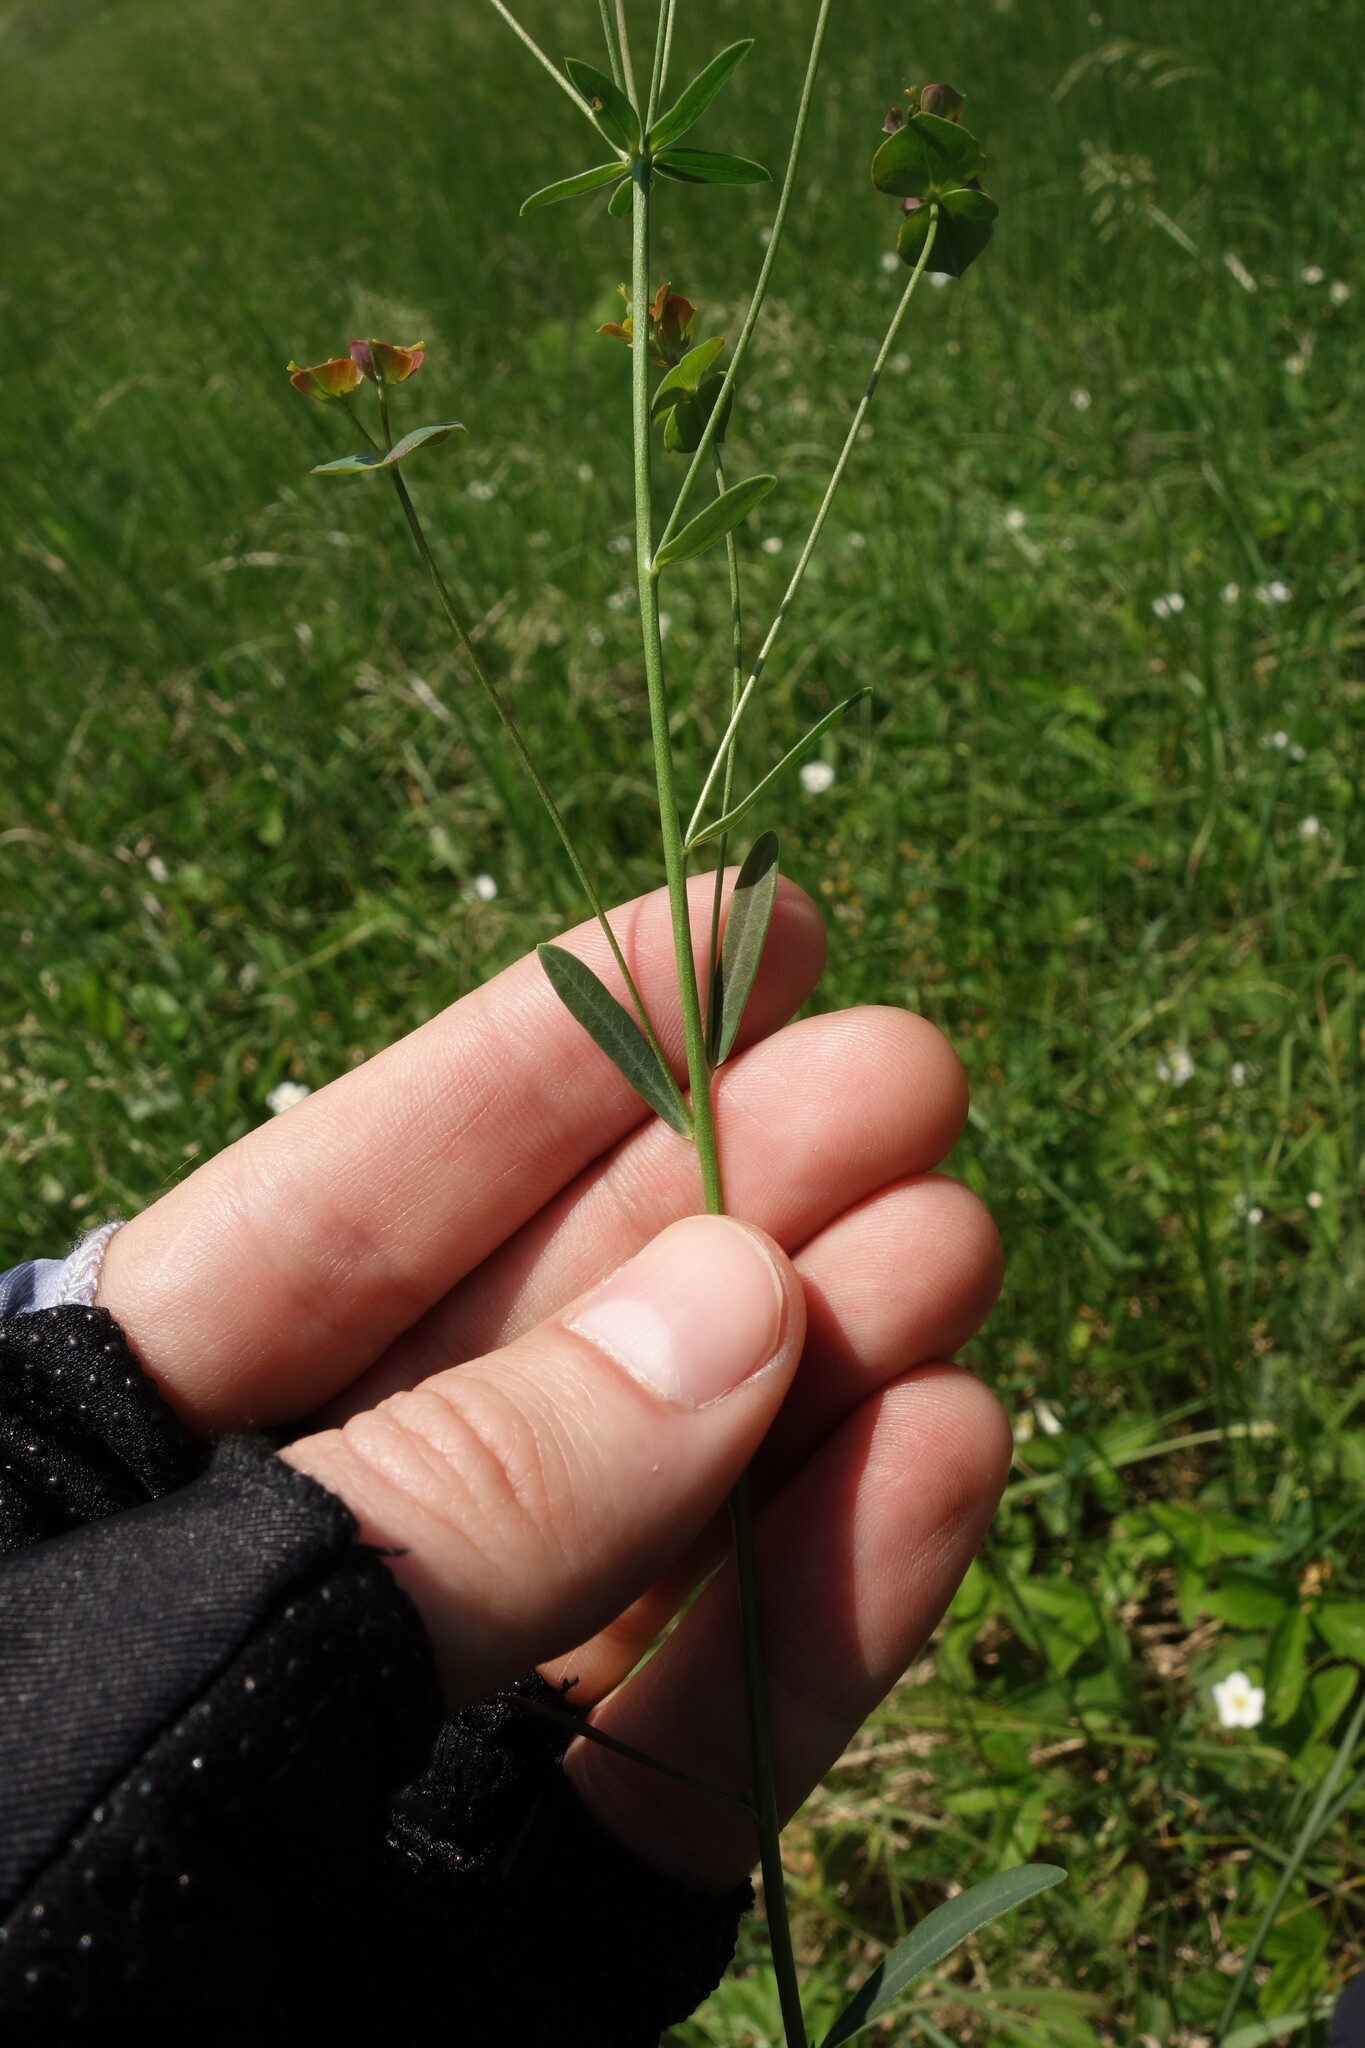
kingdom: Plantae
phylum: Tracheophyta
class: Magnoliopsida
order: Malpighiales
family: Euphorbiaceae
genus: Euphorbia
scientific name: Euphorbia microcarpa
